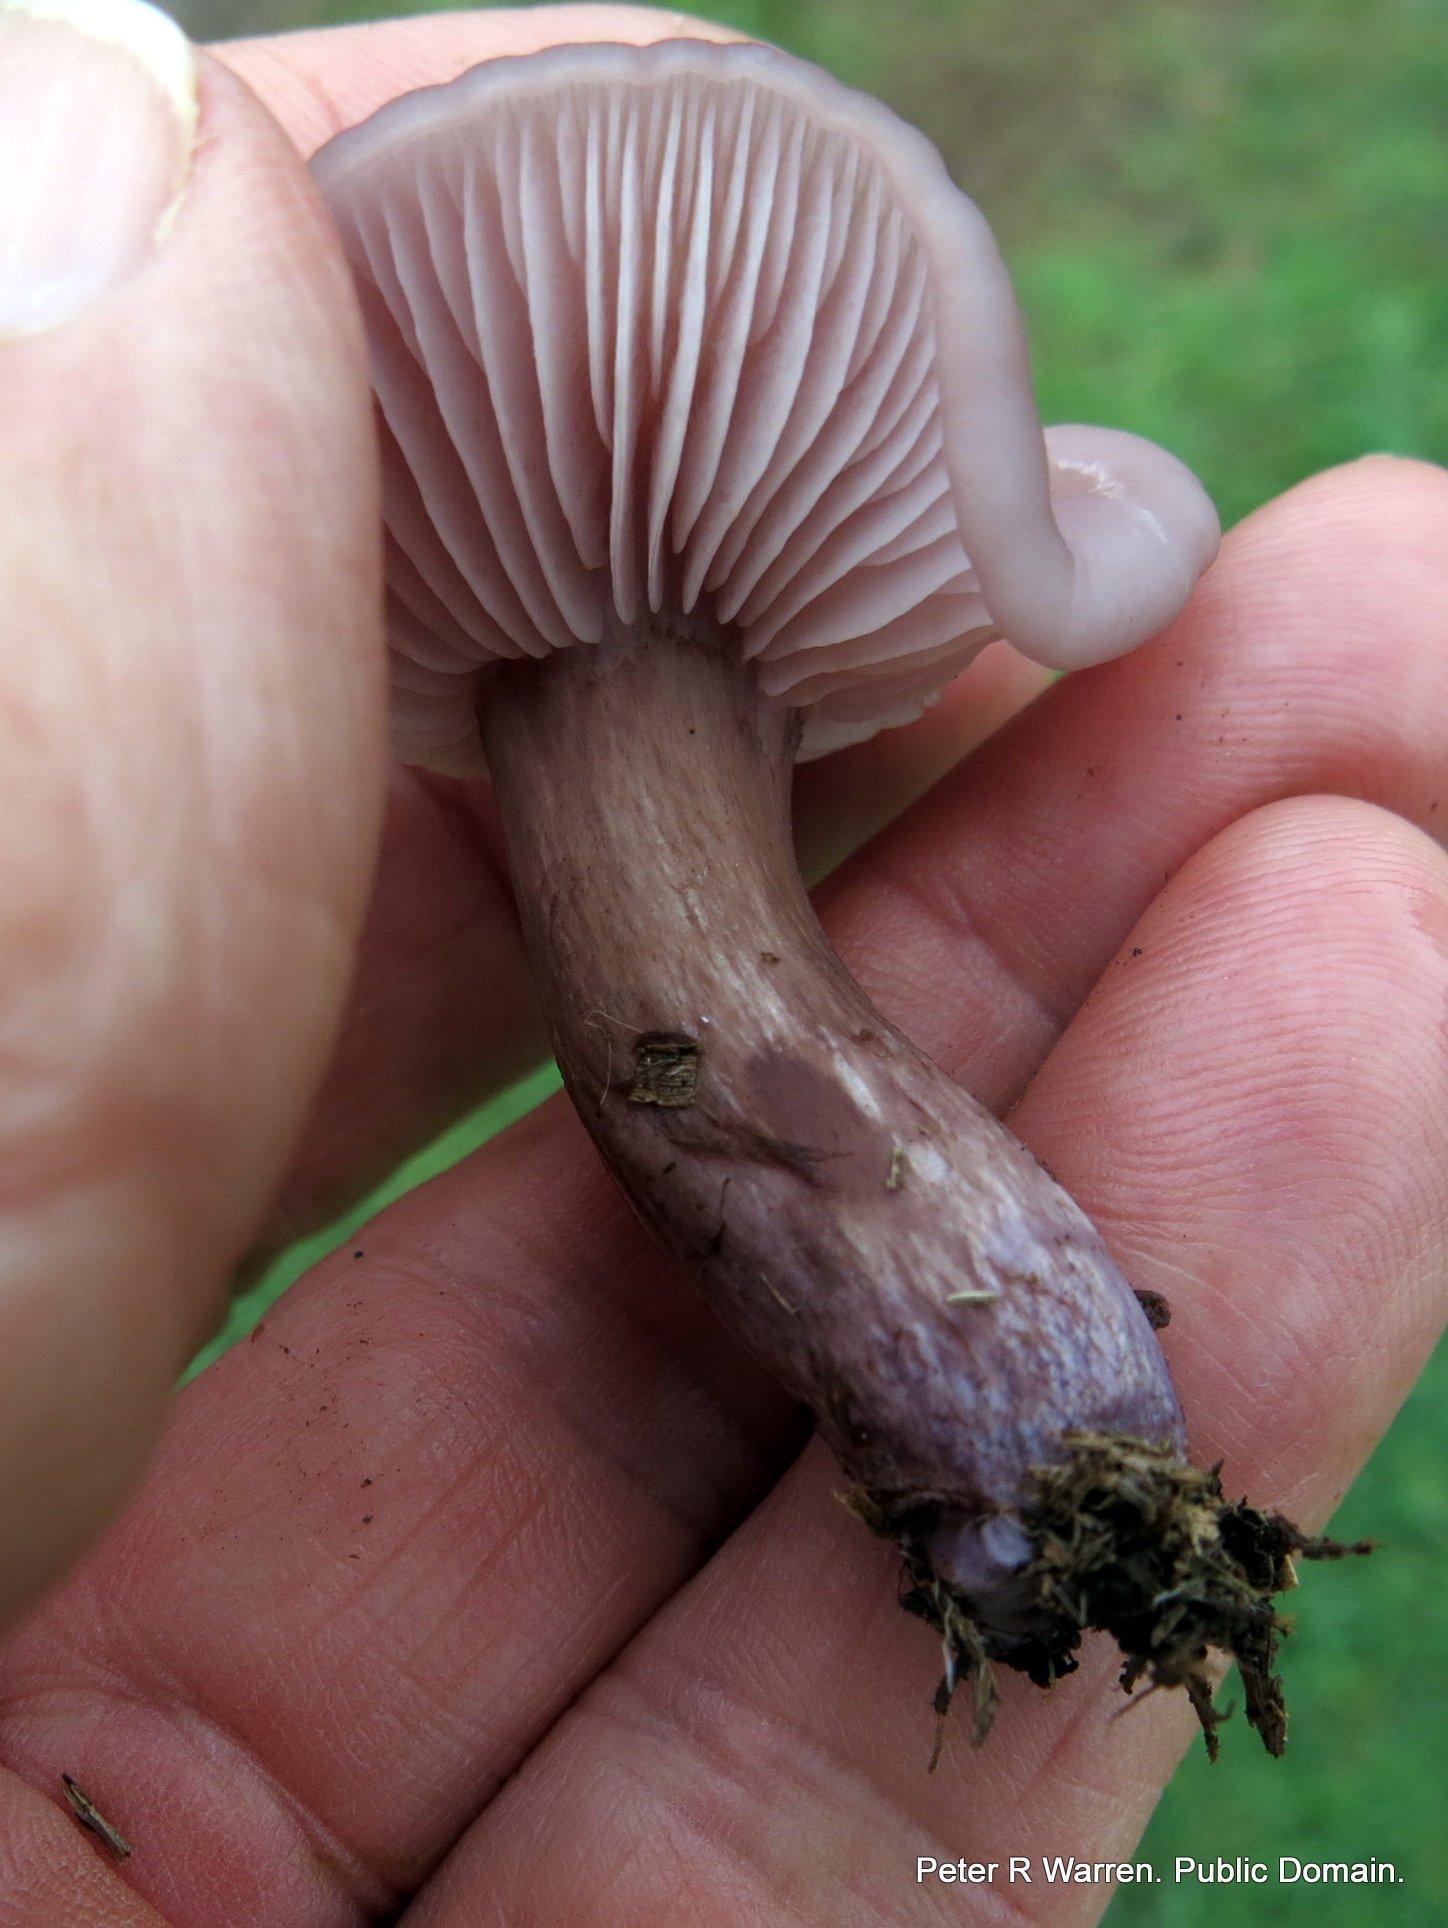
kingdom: Fungi
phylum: Basidiomycota
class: Agaricomycetes
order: Agaricales
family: Tricholomataceae
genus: Collybia
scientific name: Collybia
